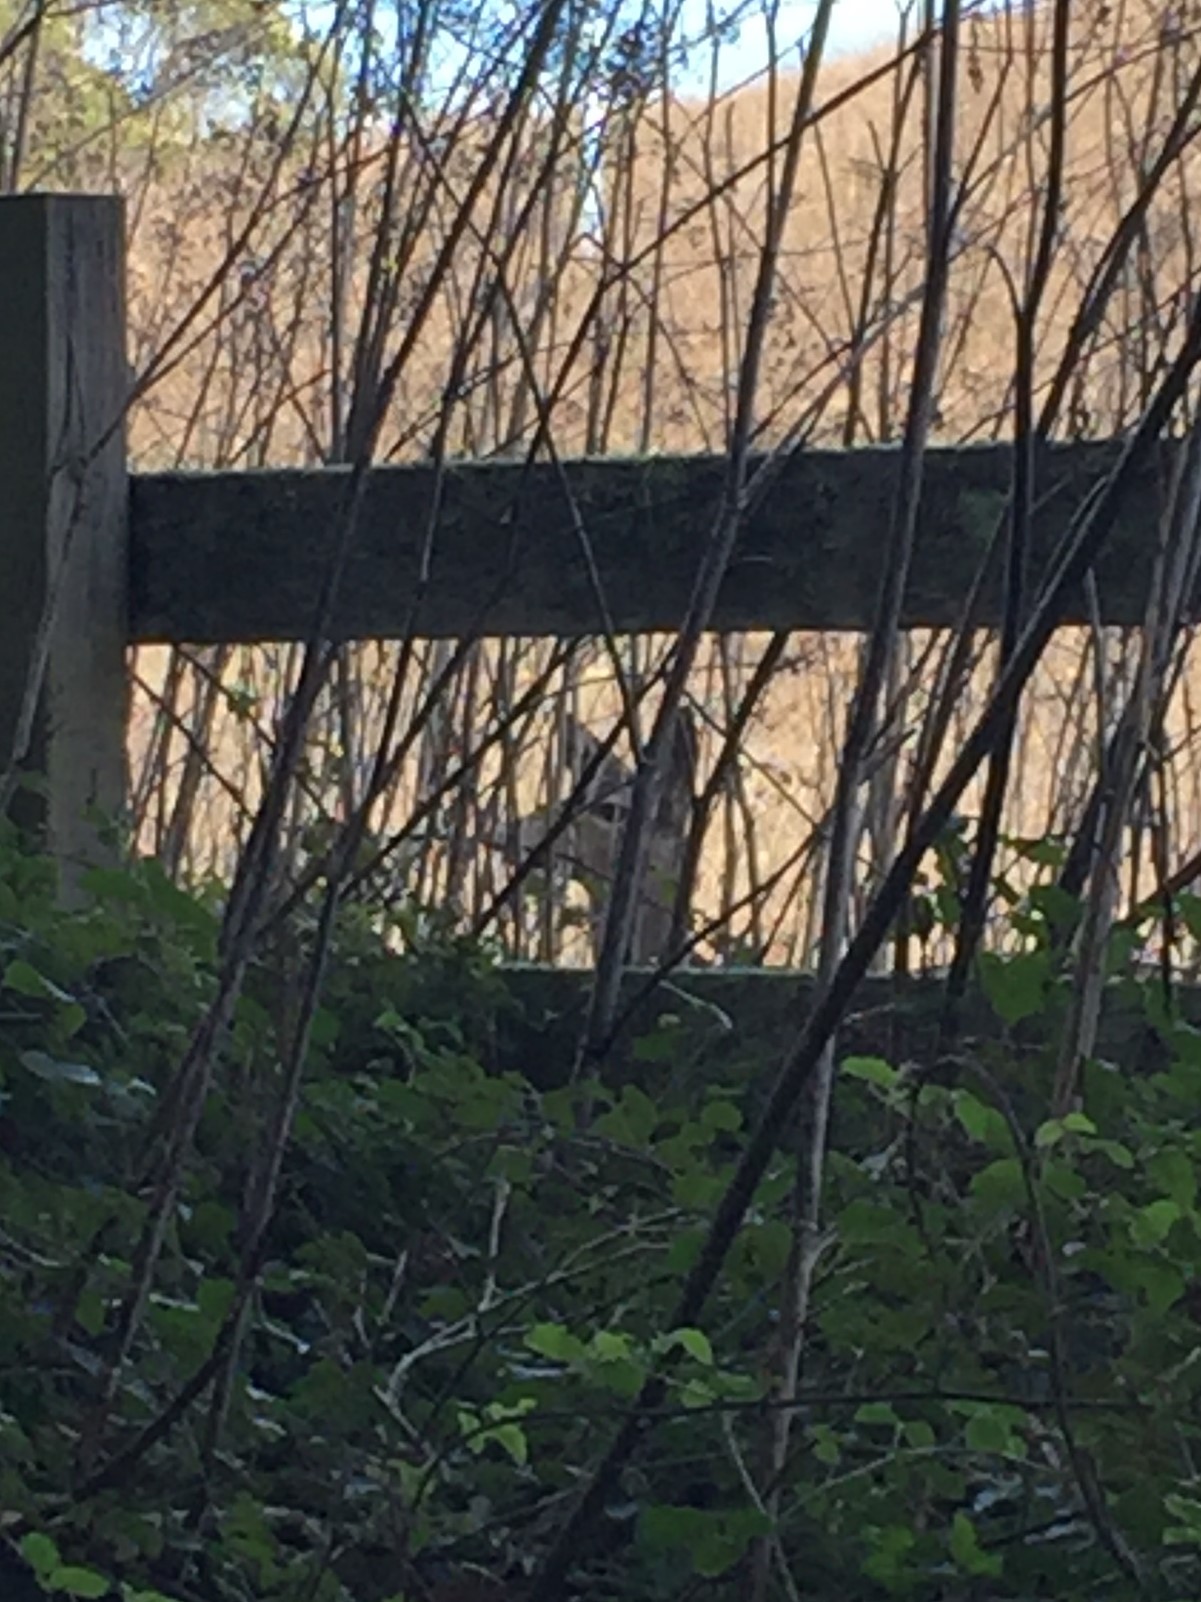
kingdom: Animalia
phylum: Chordata
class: Mammalia
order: Artiodactyla
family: Cervidae
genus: Odocoileus
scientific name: Odocoileus hemionus
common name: Mule deer
